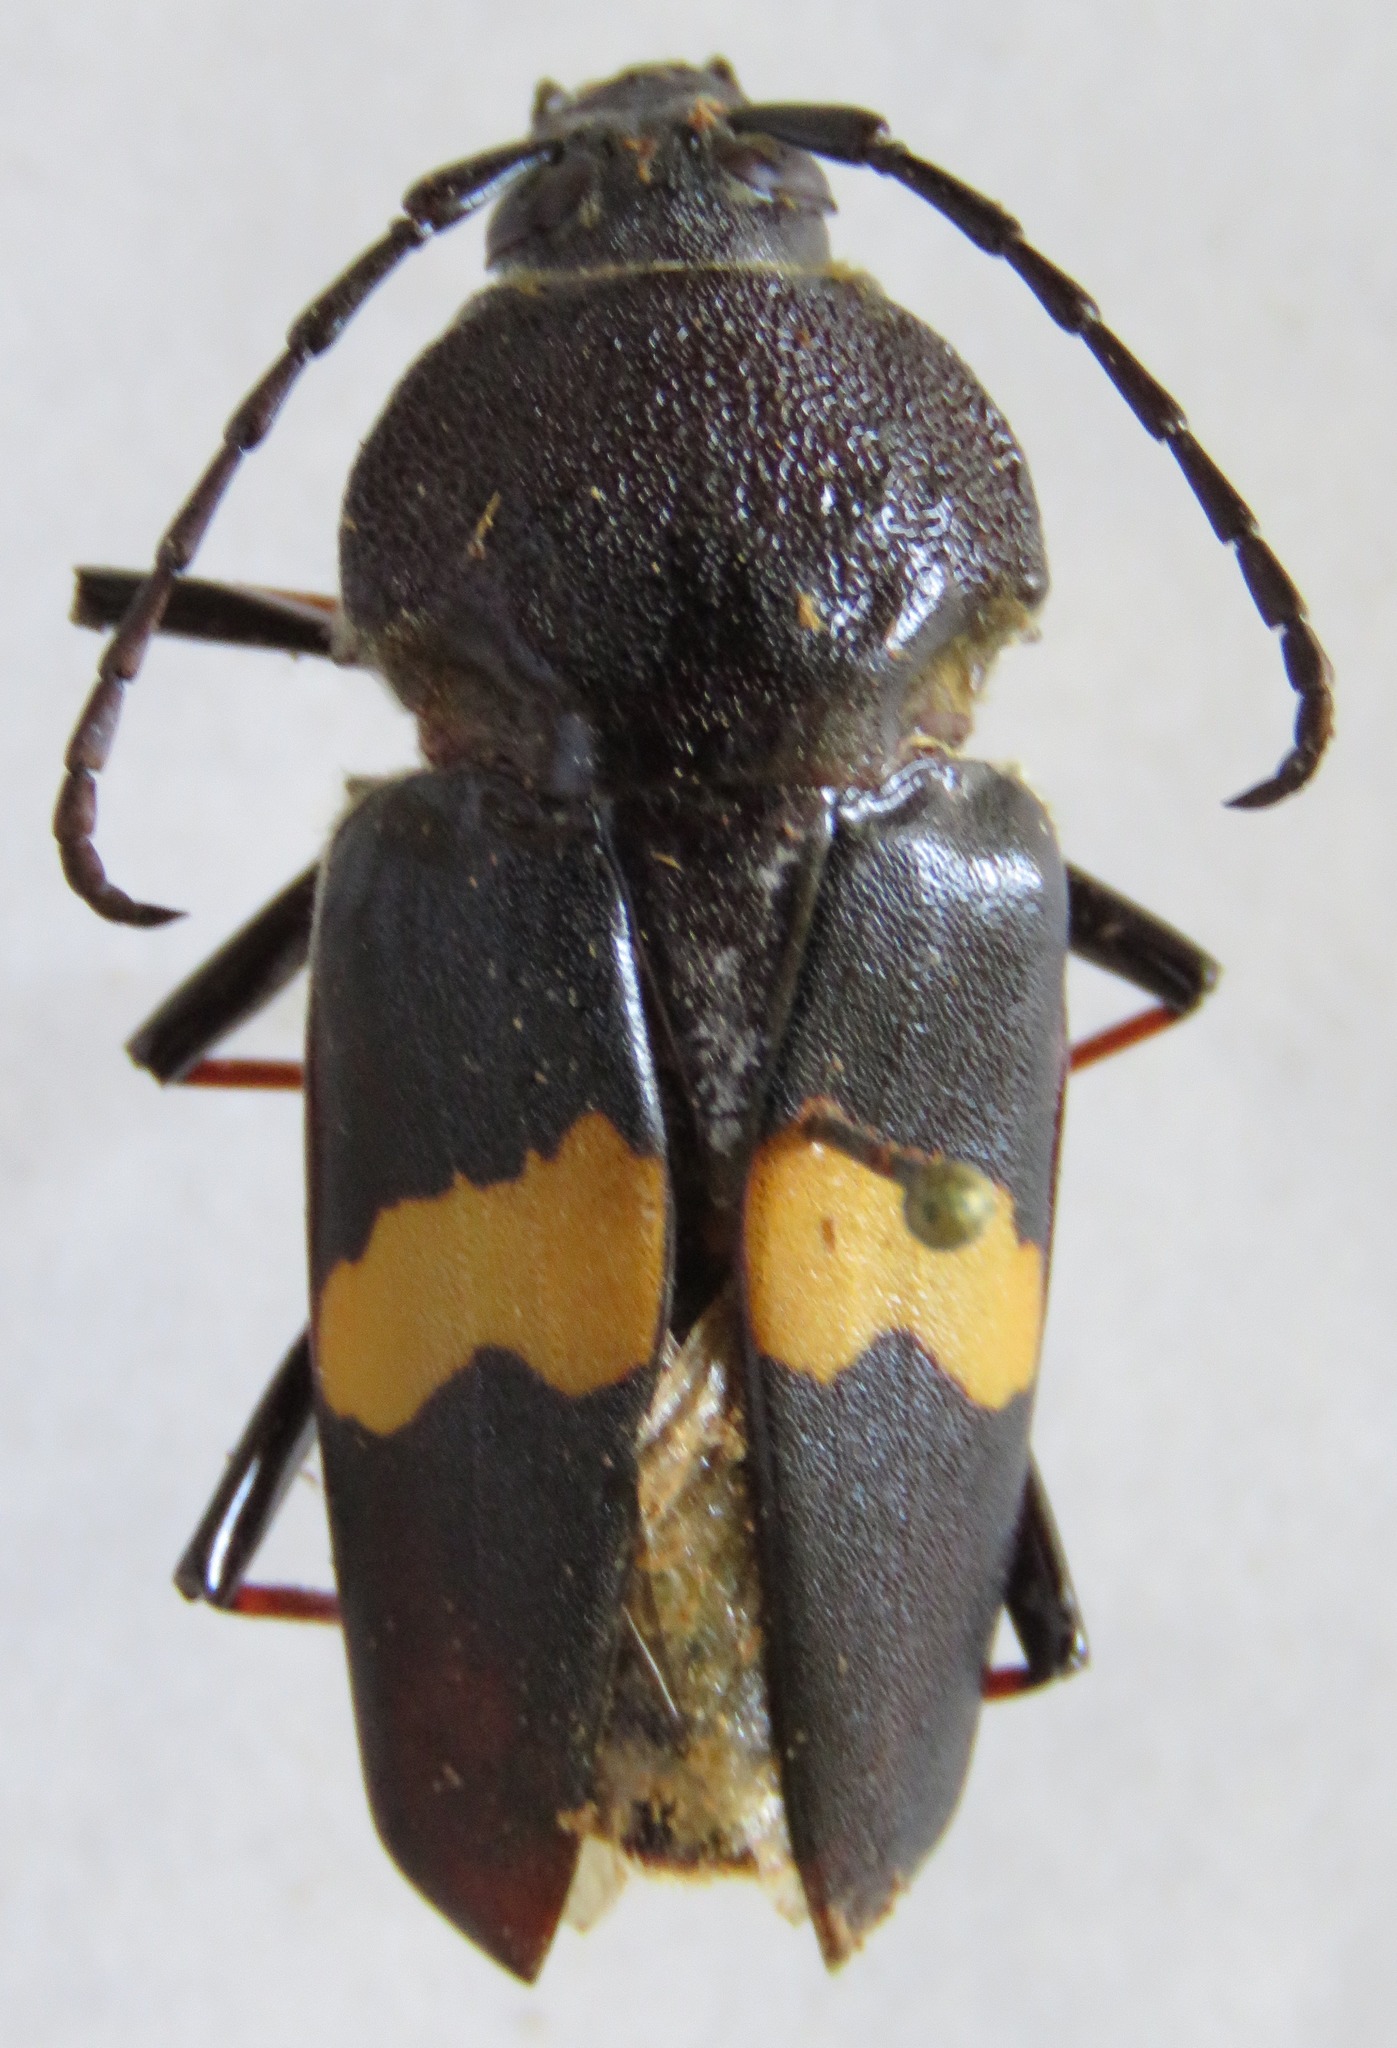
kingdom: Animalia
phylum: Arthropoda
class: Insecta
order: Coleoptera
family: Cerambycidae
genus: Megaderus
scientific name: Megaderus stigma
